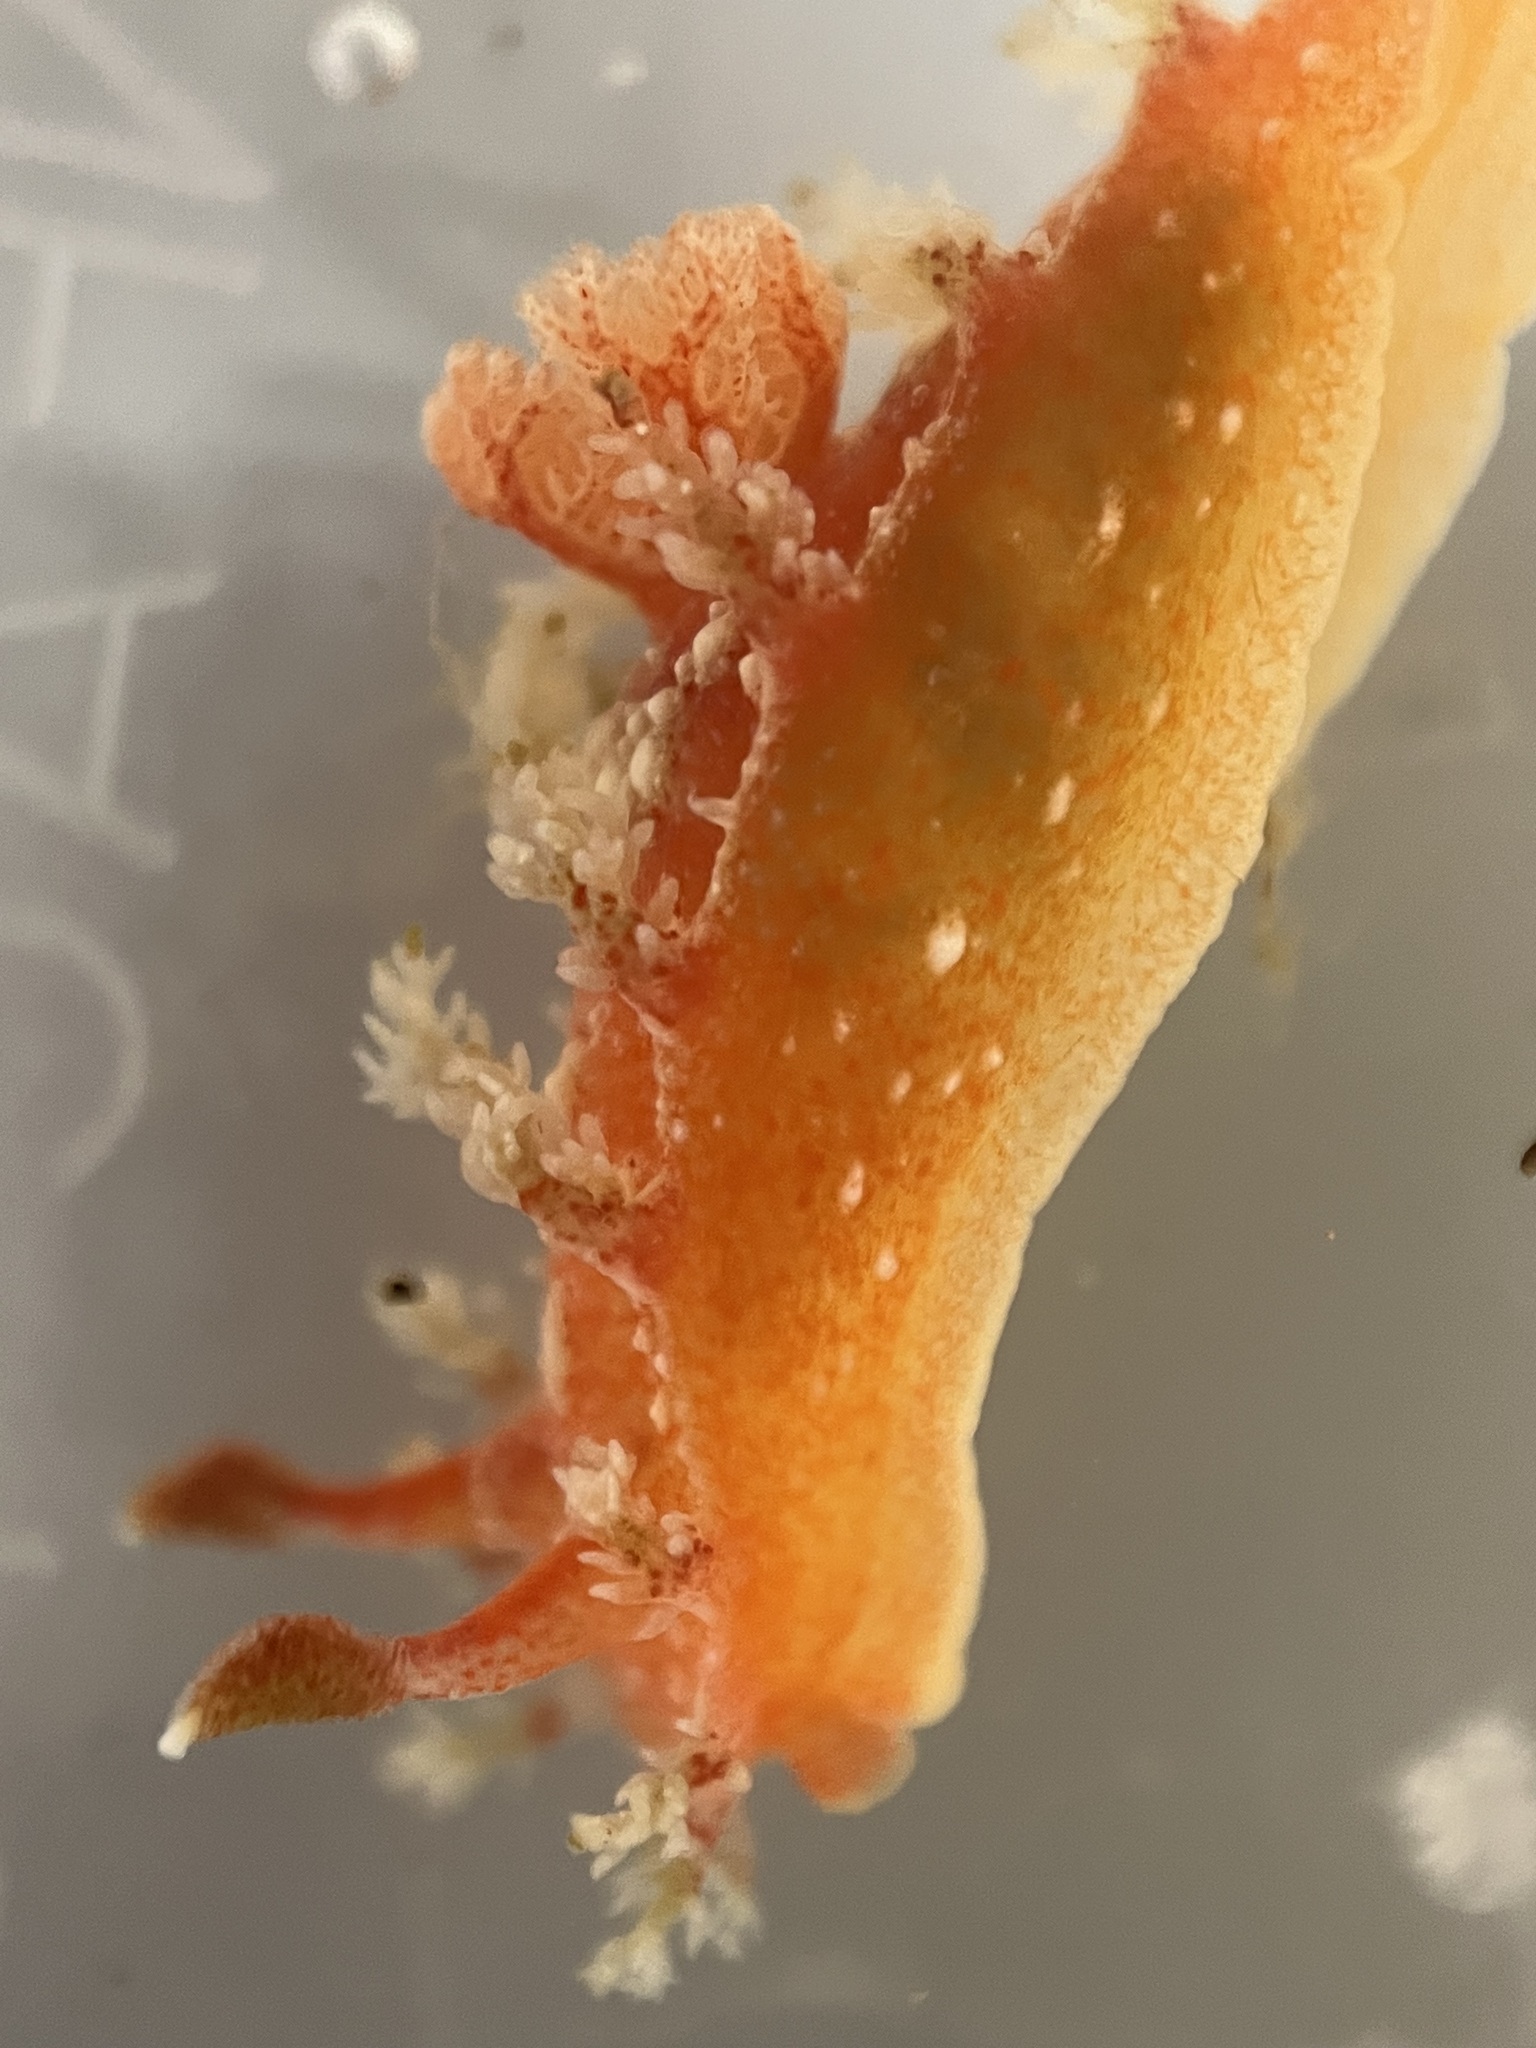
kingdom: Animalia
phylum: Mollusca
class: Gastropoda
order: Nudibranchia
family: Polyceridae
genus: Kaloplocamus
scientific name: Kaloplocamus ramosus
